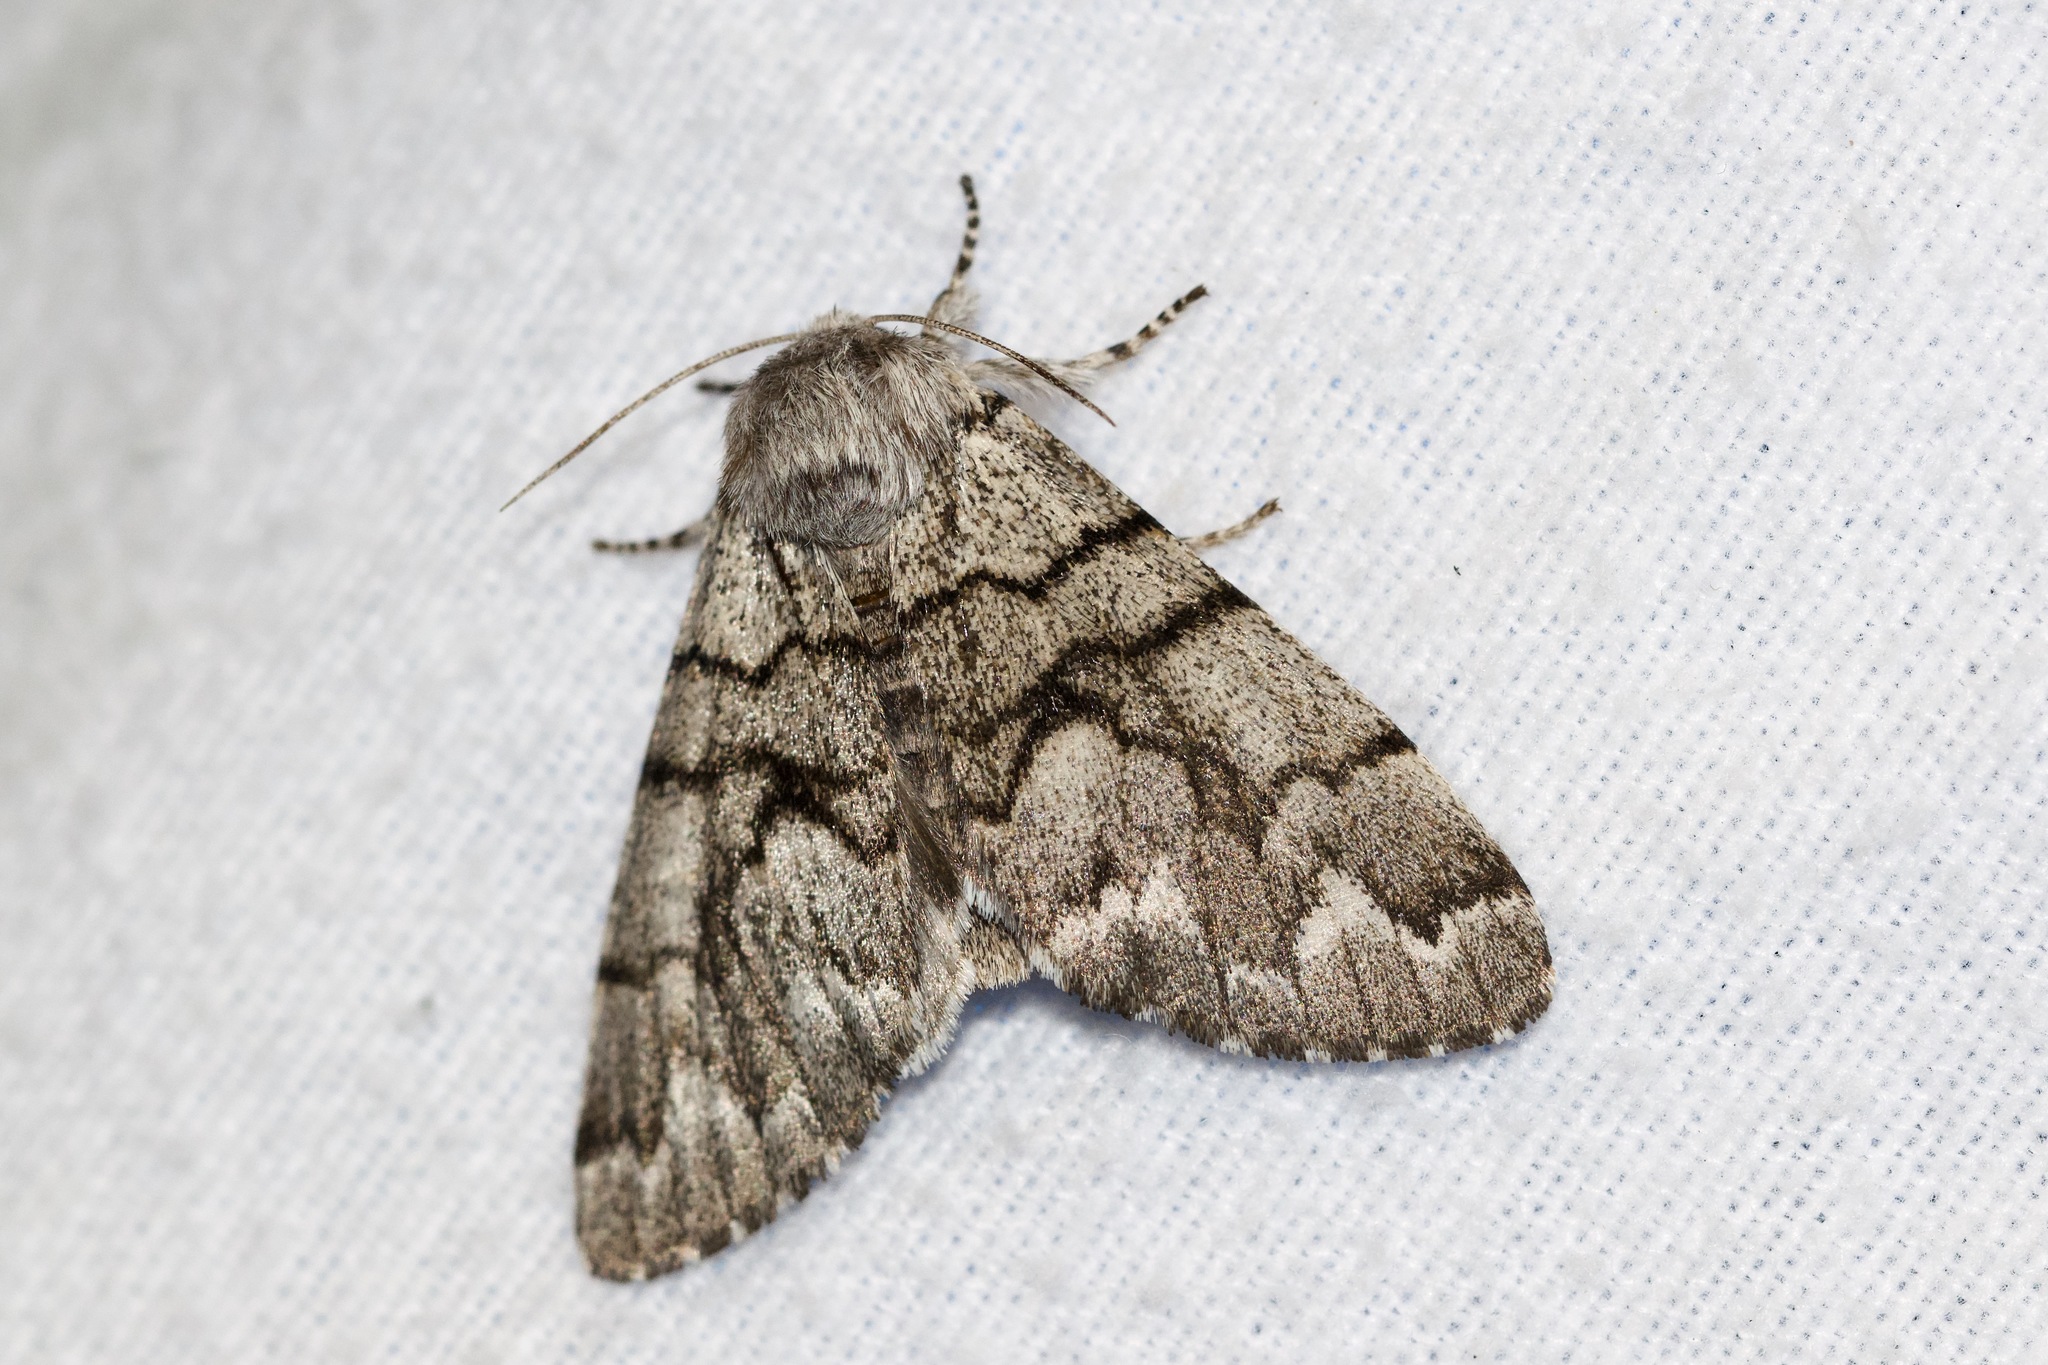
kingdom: Animalia
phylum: Arthropoda
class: Insecta
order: Lepidoptera
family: Noctuidae
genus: Panthea
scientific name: Panthea furcilla
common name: Eastern panthea moth
